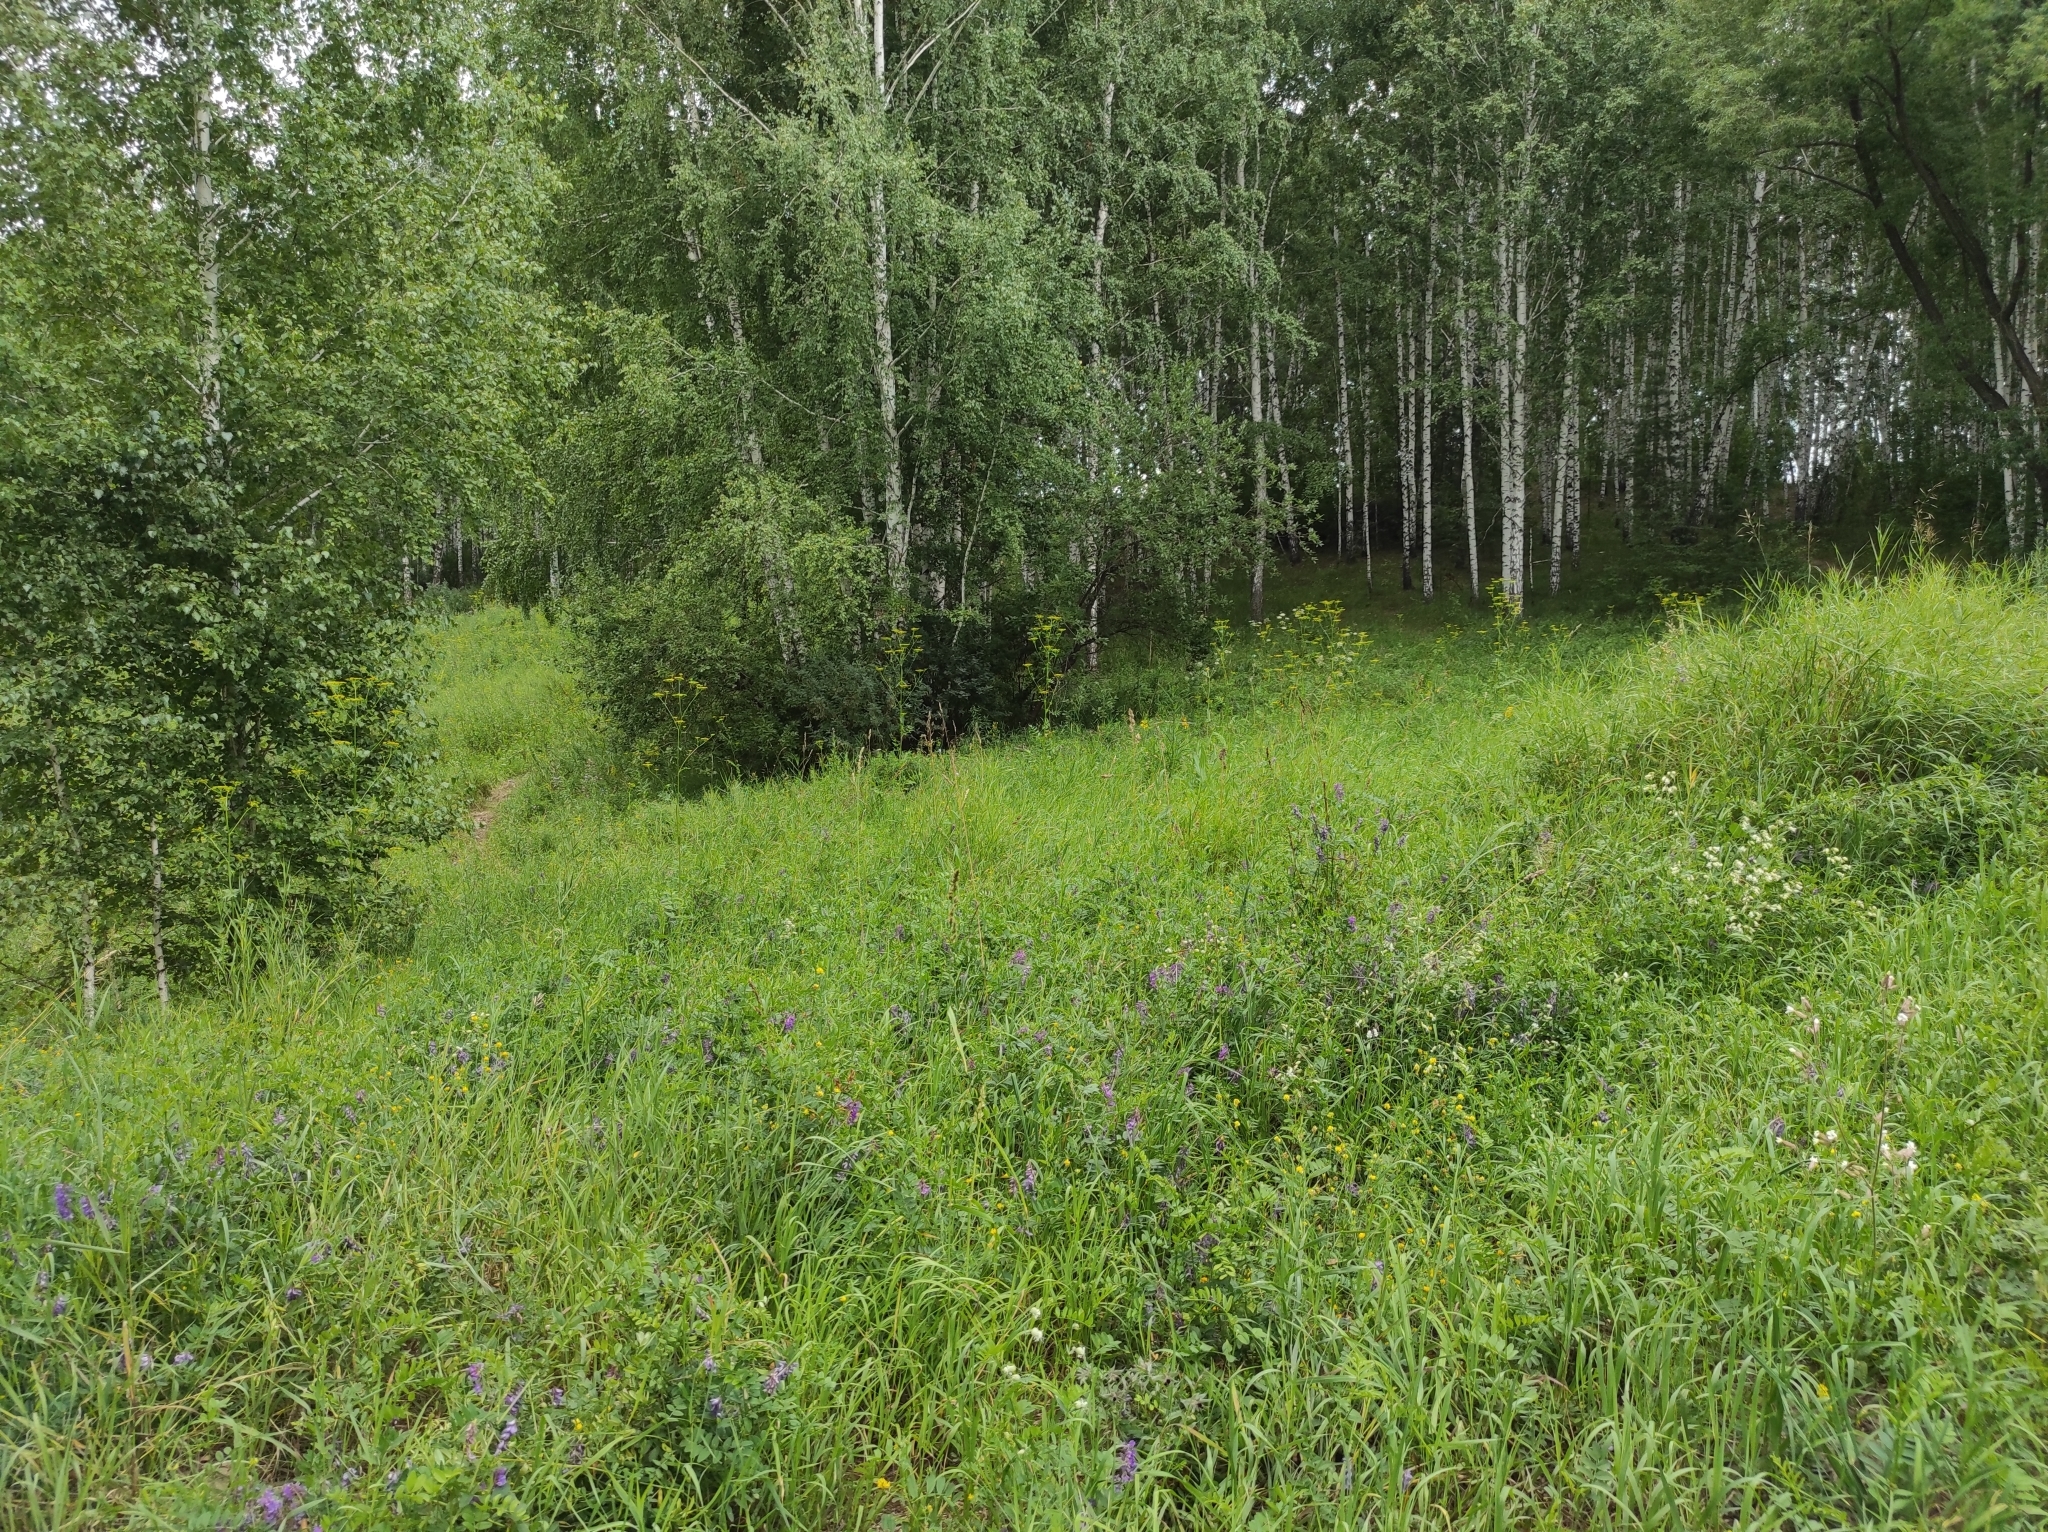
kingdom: Plantae
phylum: Tracheophyta
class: Magnoliopsida
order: Fagales
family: Betulaceae
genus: Betula
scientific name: Betula pendula
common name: Silver birch
